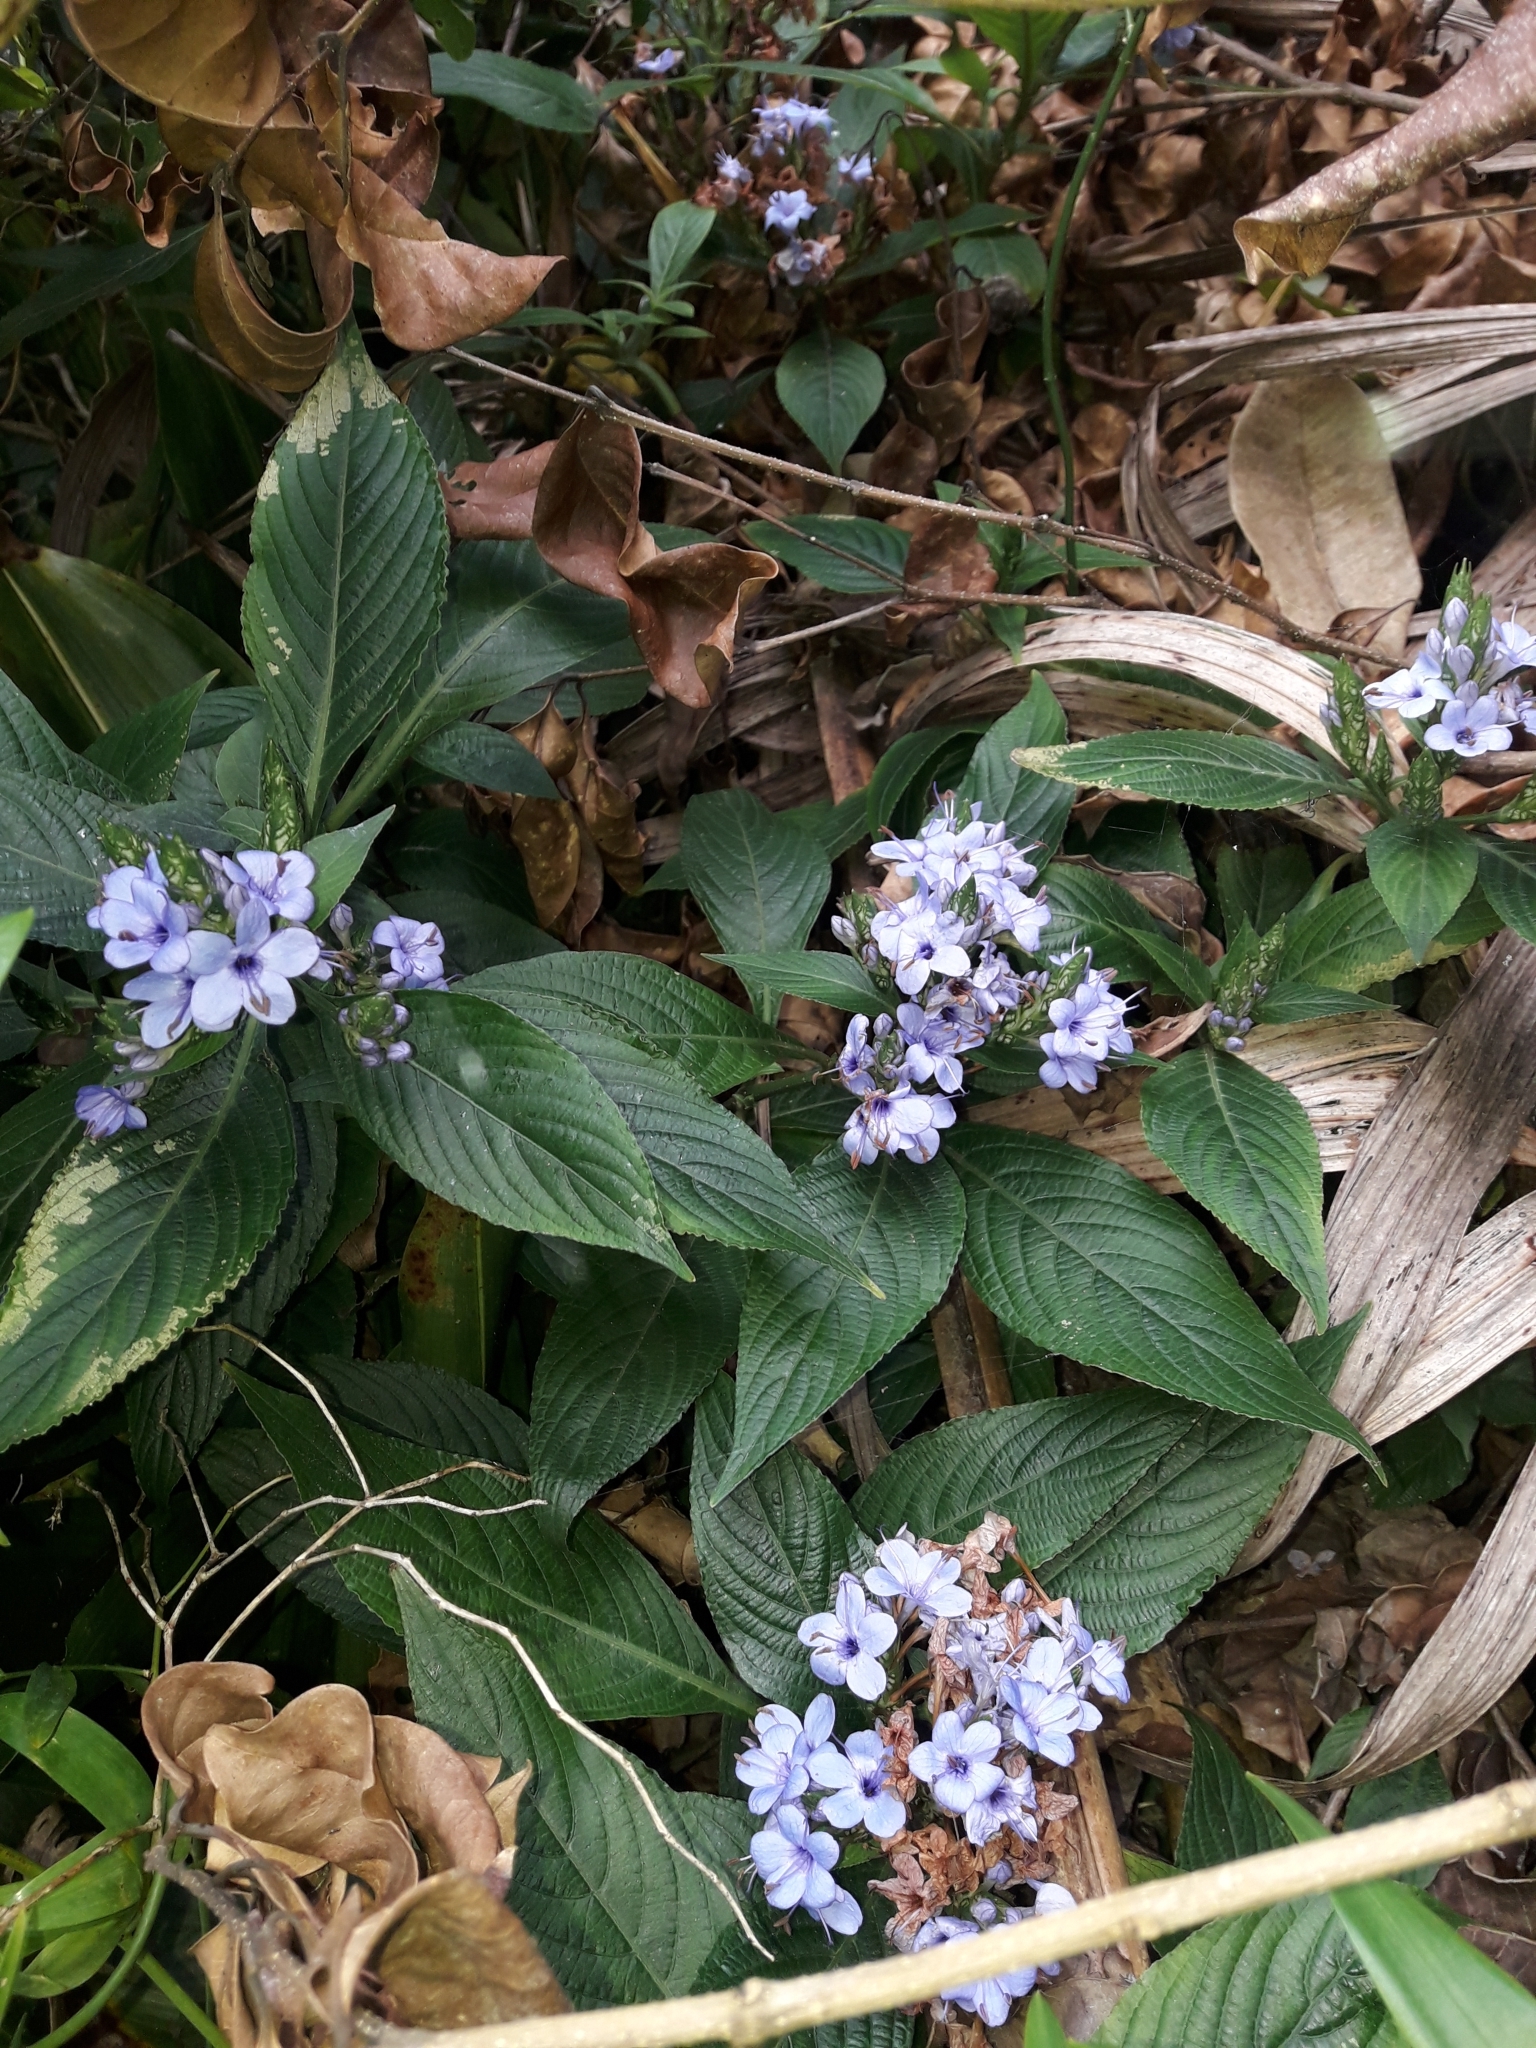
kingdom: Plantae
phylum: Tracheophyta
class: Magnoliopsida
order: Lamiales
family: Acanthaceae
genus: Eranthemum
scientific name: Eranthemum pulchellum
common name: Blue-sage
